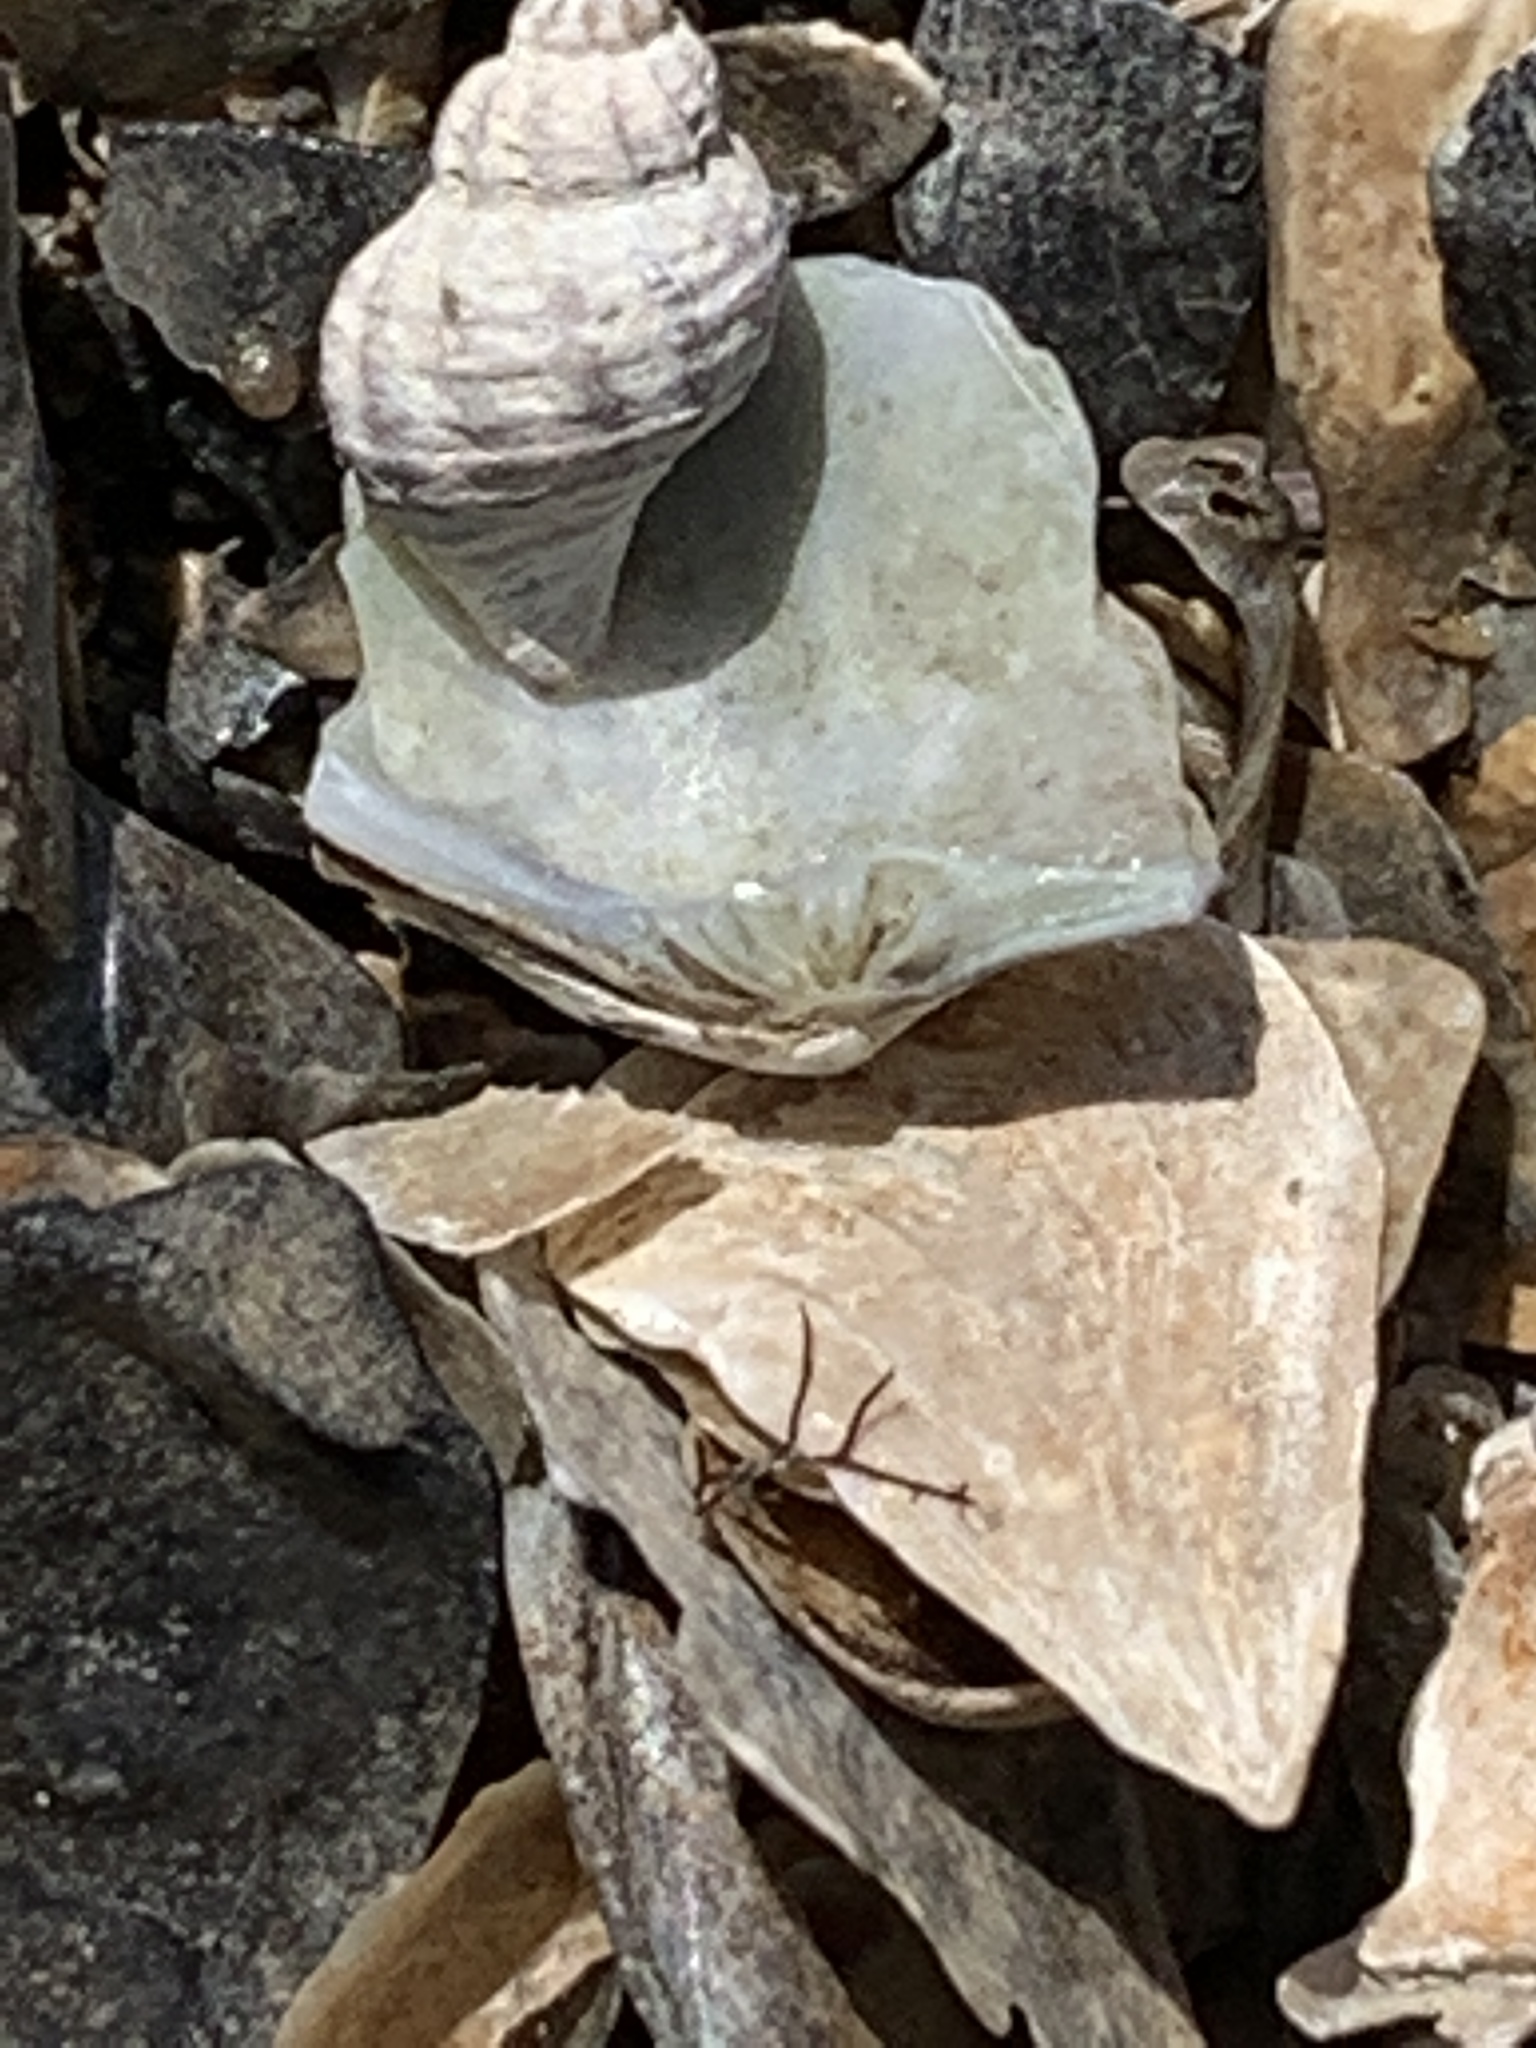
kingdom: Animalia
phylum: Mollusca
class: Gastropoda
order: Neogastropoda
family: Muricidae
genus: Urosalpinx
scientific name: Urosalpinx cinerea
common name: American sting winkle
